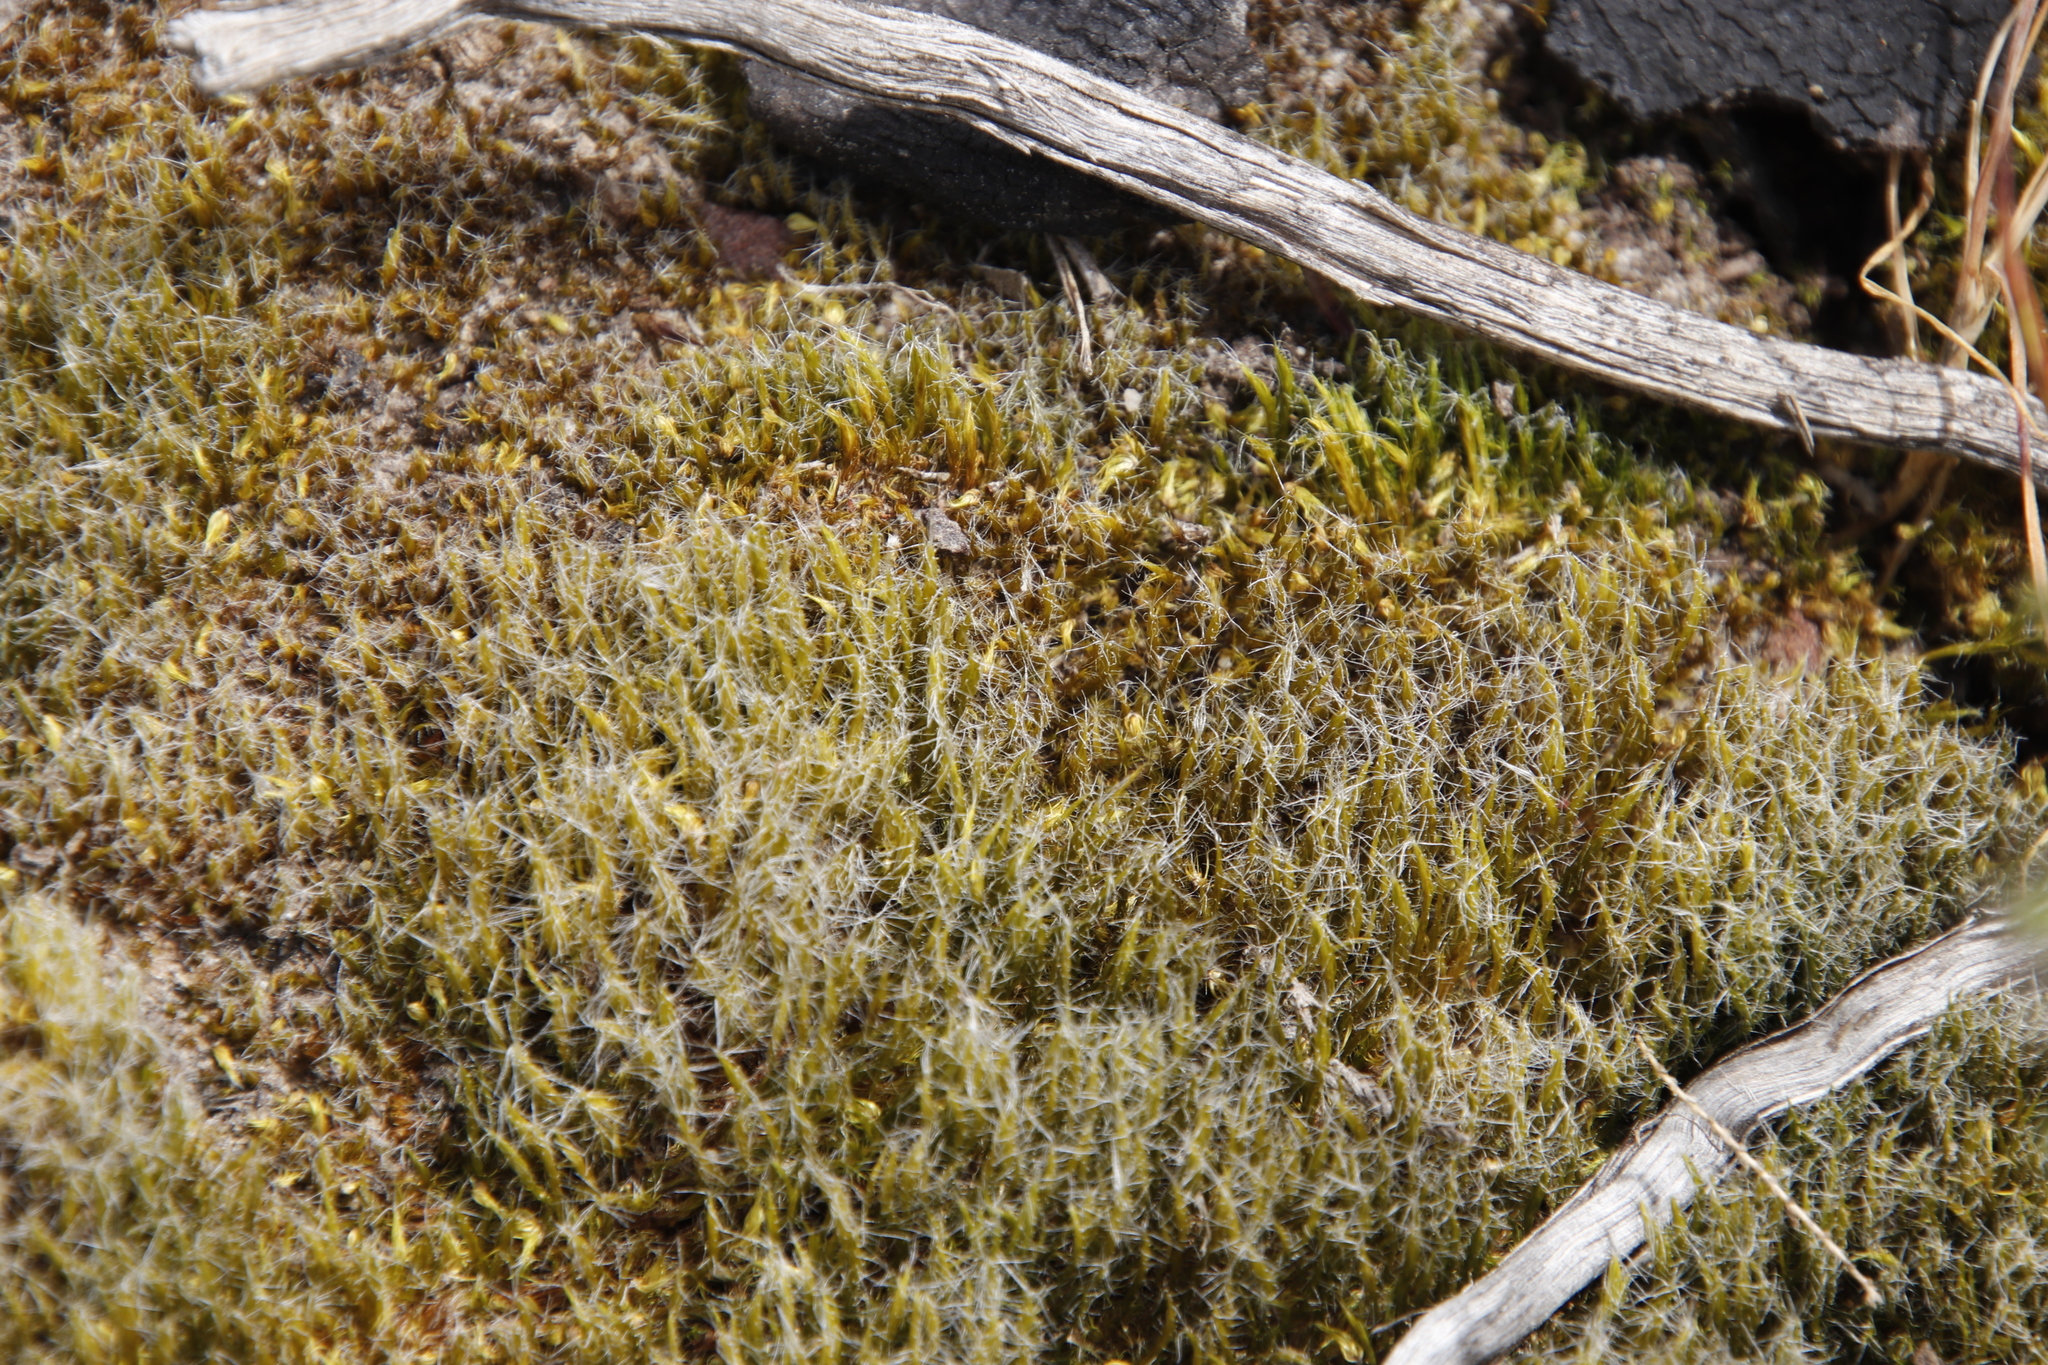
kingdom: Plantae
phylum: Bryophyta
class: Bryopsida
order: Dicranales
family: Leucobryaceae
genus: Campylopus
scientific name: Campylopus introflexus
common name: Heath star moss
